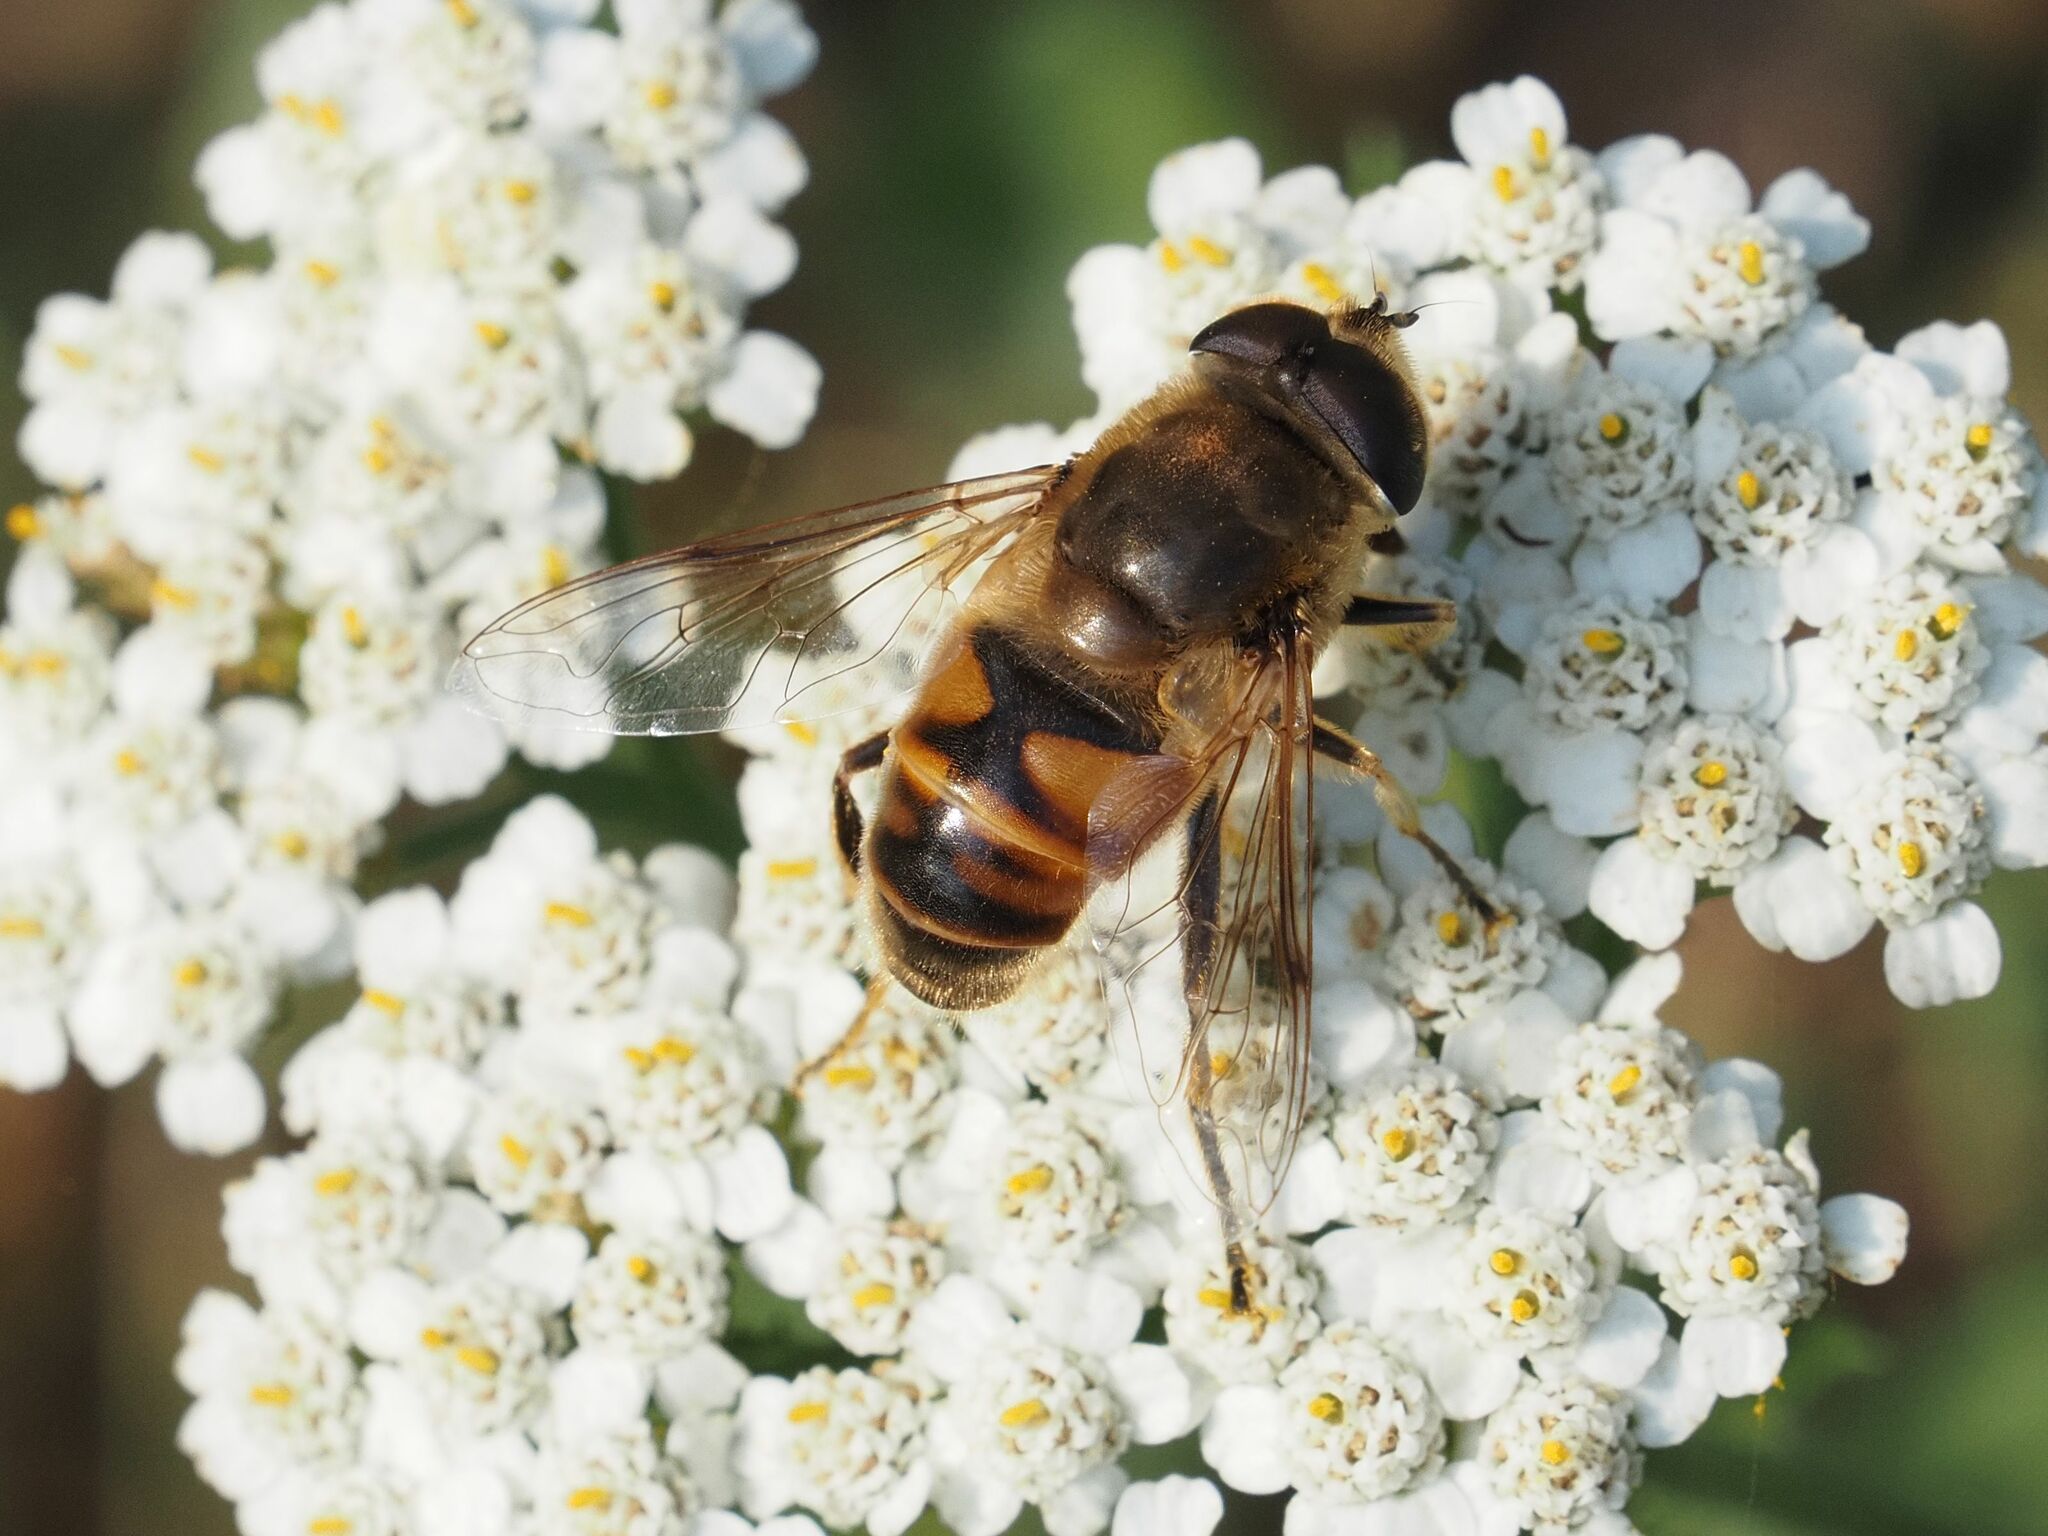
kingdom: Animalia
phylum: Arthropoda
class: Insecta
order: Diptera
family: Syrphidae
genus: Eristalis
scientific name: Eristalis tenax
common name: Drone fly
